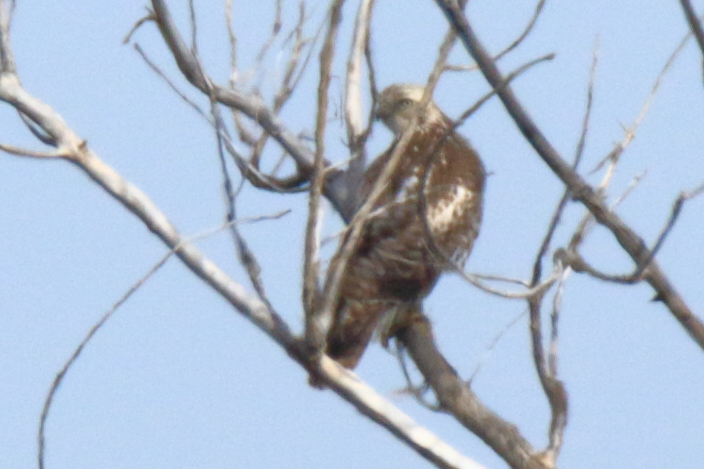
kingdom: Animalia
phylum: Chordata
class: Aves
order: Accipitriformes
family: Accipitridae
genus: Buteo
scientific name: Buteo jamaicensis
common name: Red-tailed hawk
